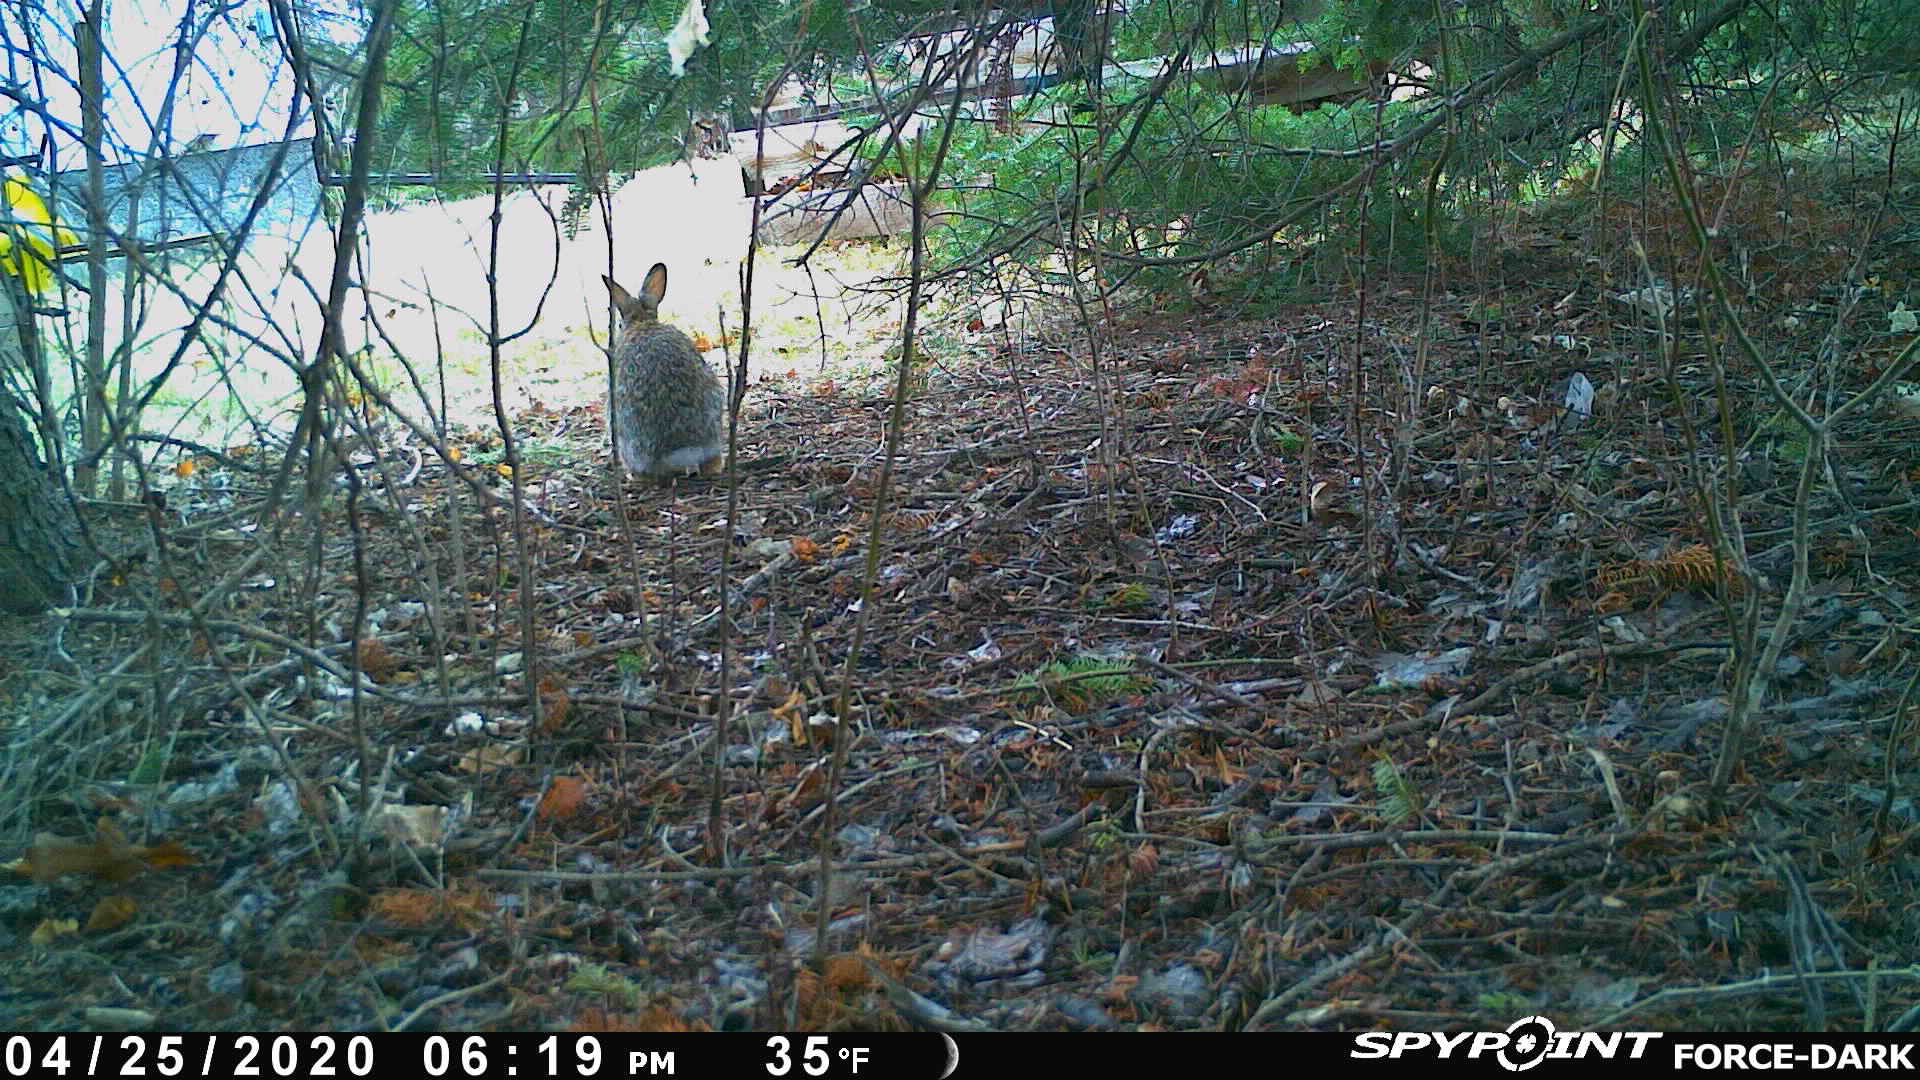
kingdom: Animalia
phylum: Chordata
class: Mammalia
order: Lagomorpha
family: Leporidae
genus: Sylvilagus
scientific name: Sylvilagus floridanus
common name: Eastern cottontail
